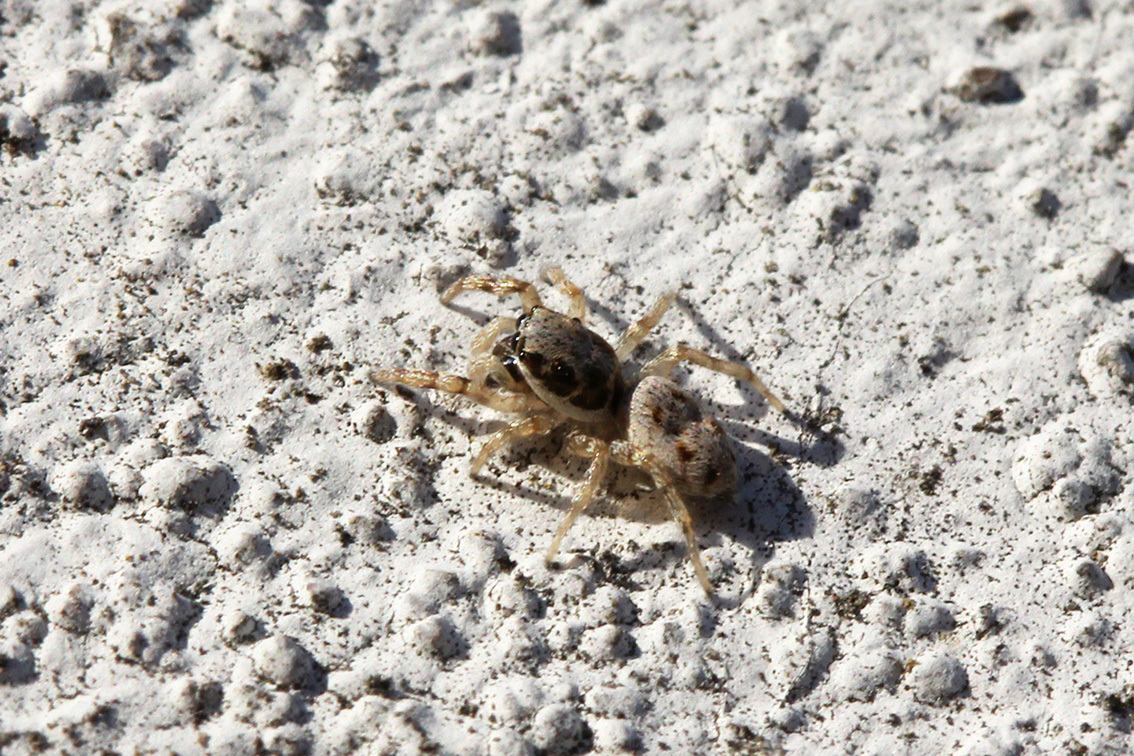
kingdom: Animalia
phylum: Arthropoda
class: Arachnida
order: Araneae
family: Salticidae
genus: Salticus
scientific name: Salticus mutabilis
